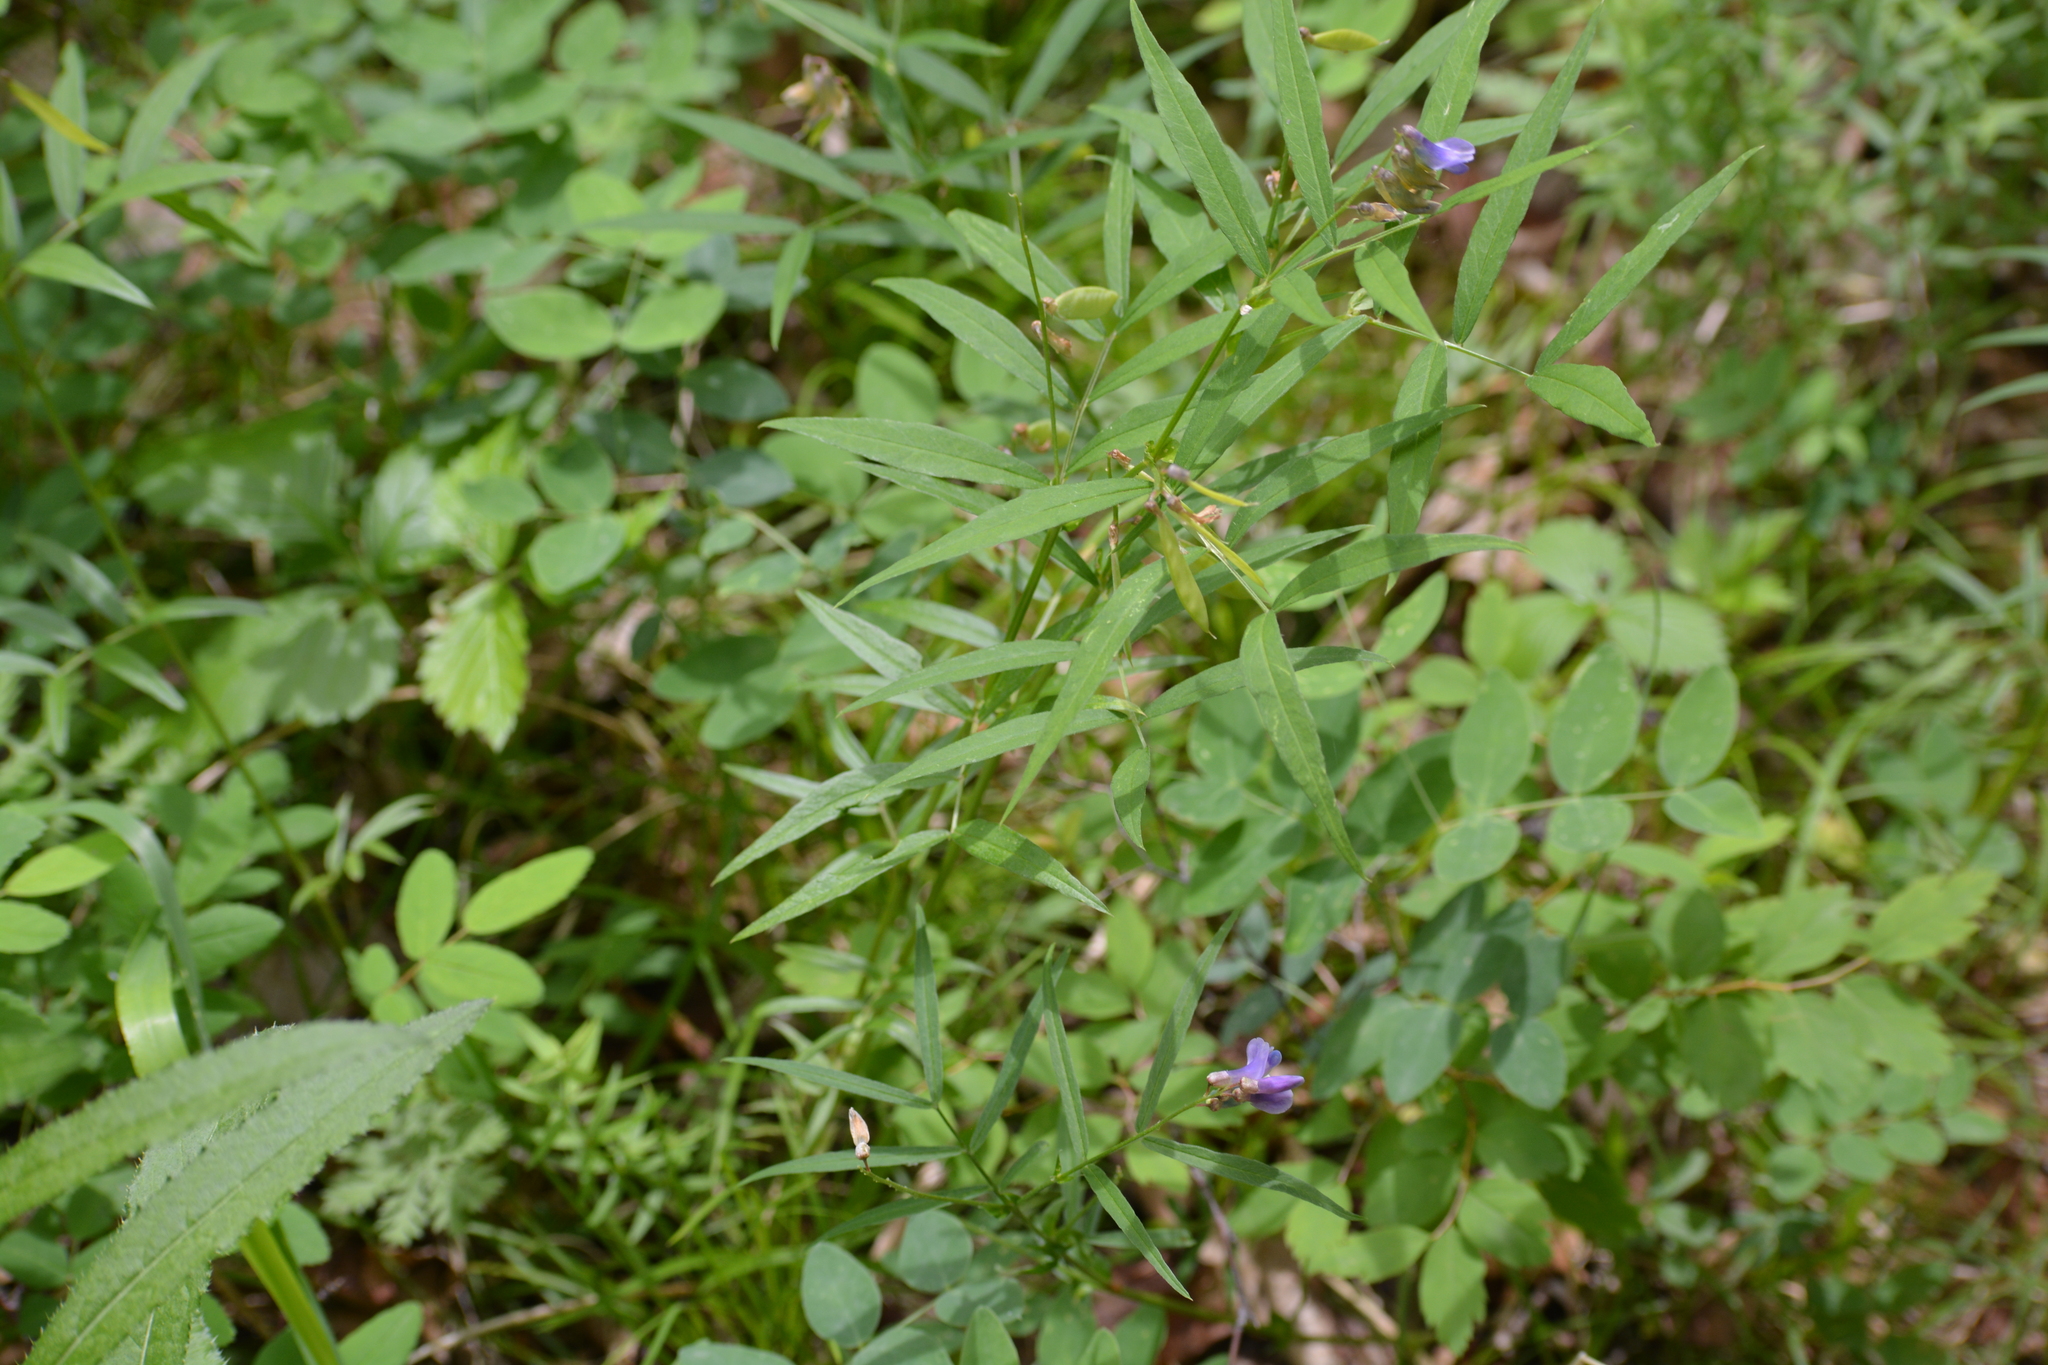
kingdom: Plantae
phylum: Tracheophyta
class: Magnoliopsida
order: Fabales
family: Fabaceae
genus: Vicia
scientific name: Vicia venosa
